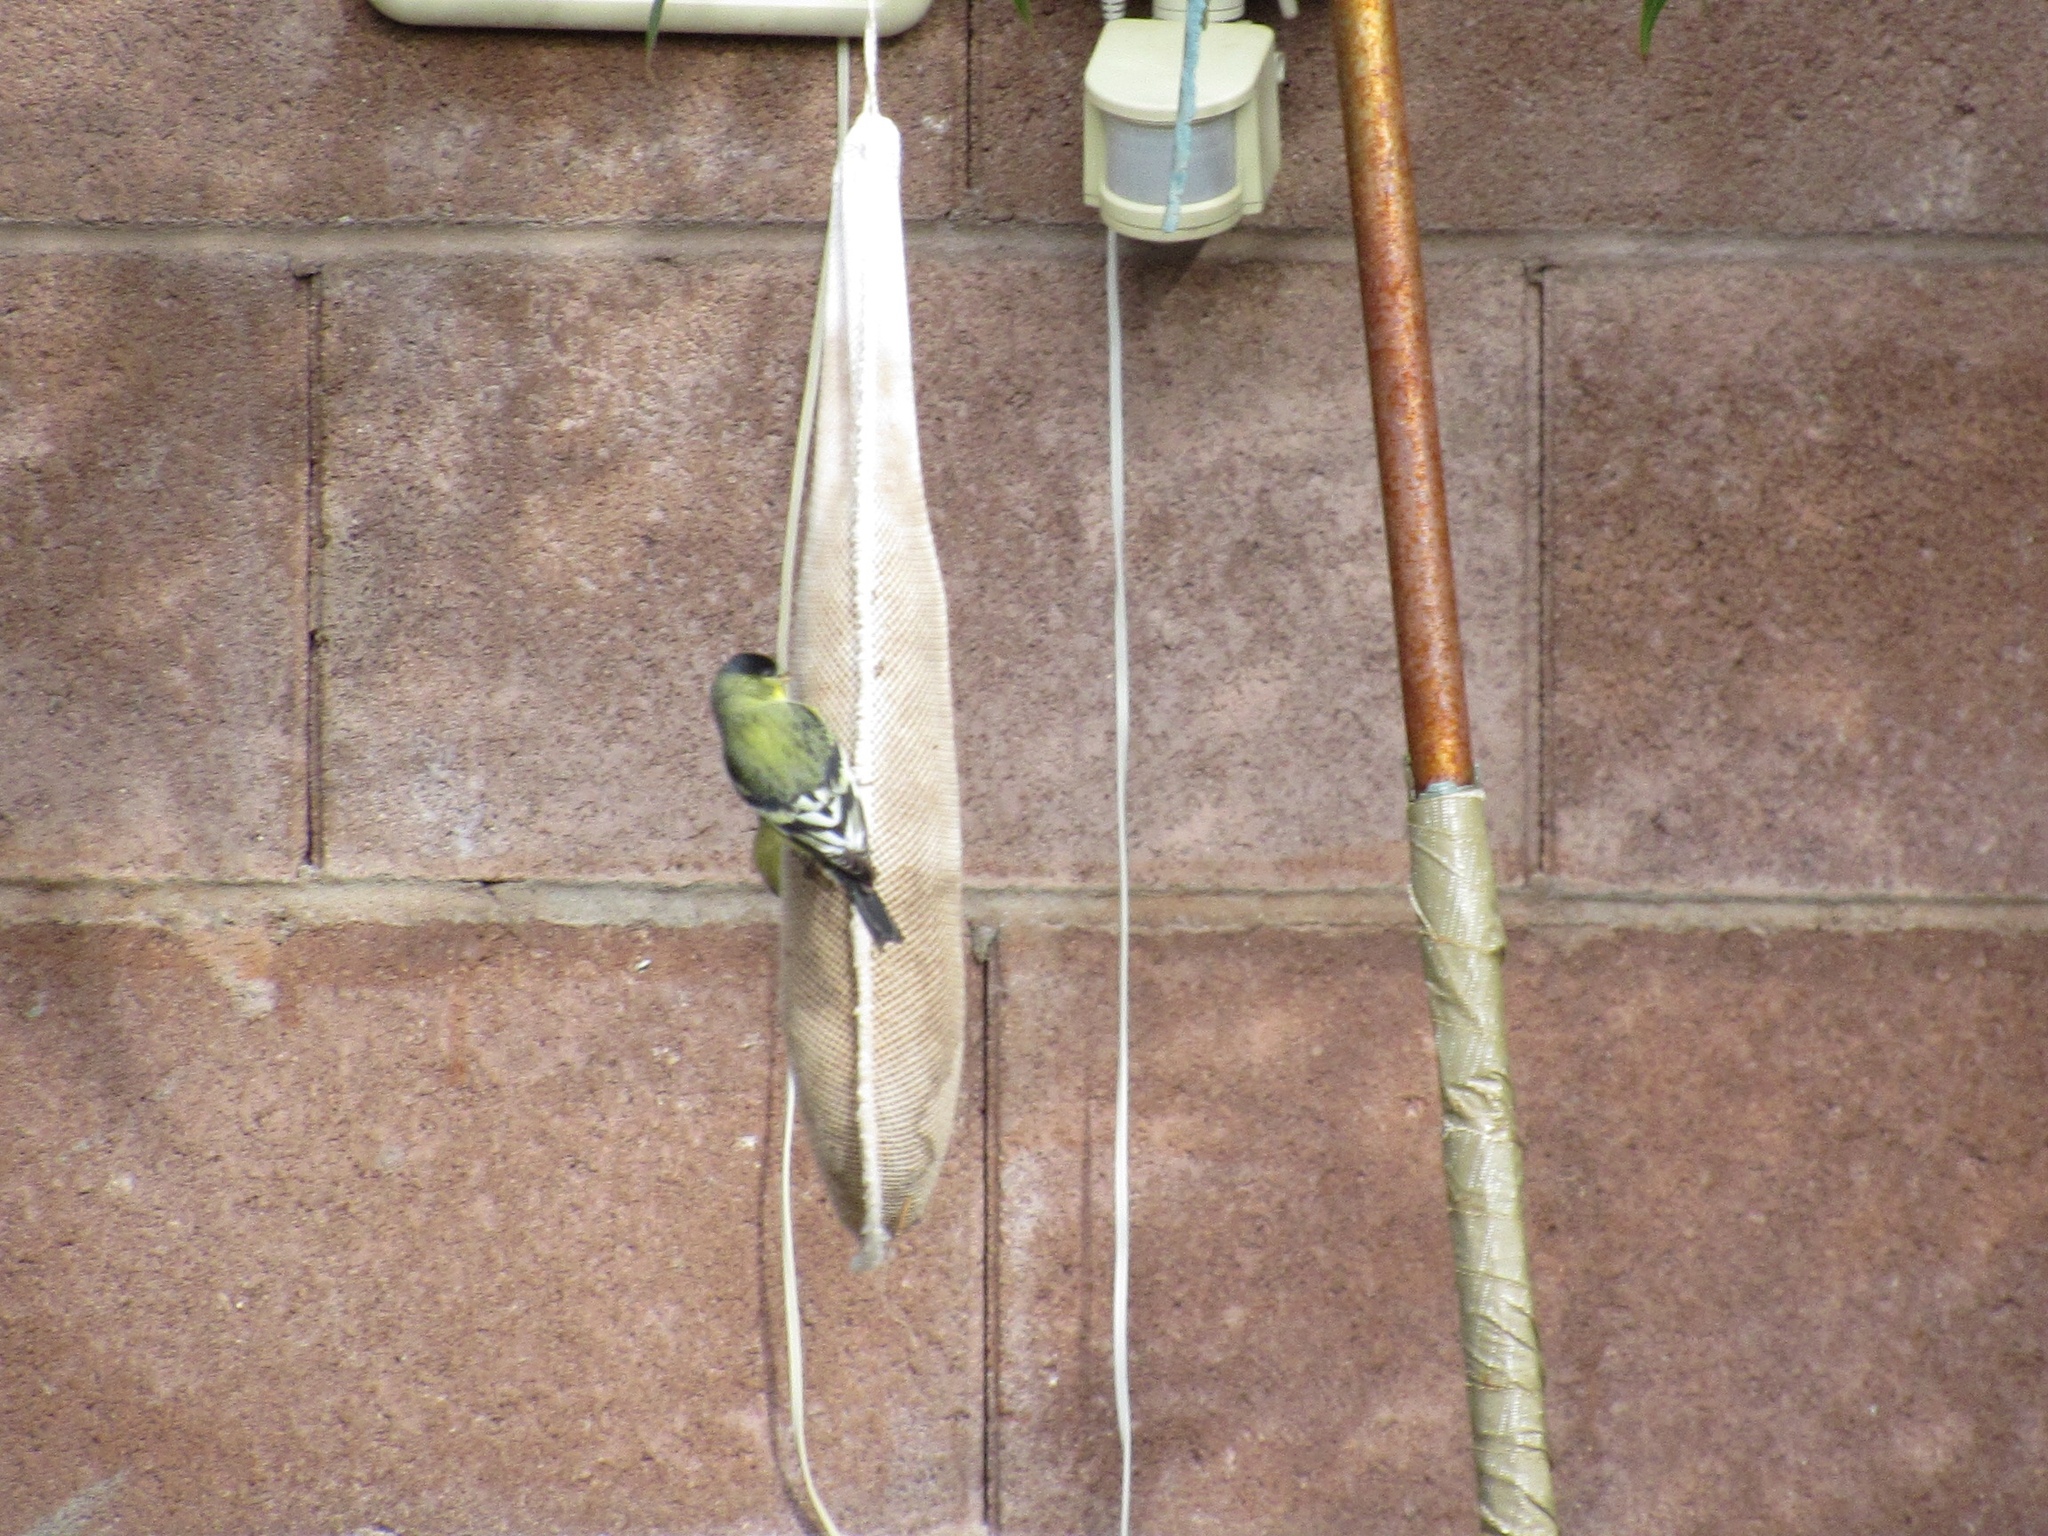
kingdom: Animalia
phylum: Chordata
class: Aves
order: Passeriformes
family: Fringillidae
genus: Spinus
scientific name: Spinus psaltria
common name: Lesser goldfinch
